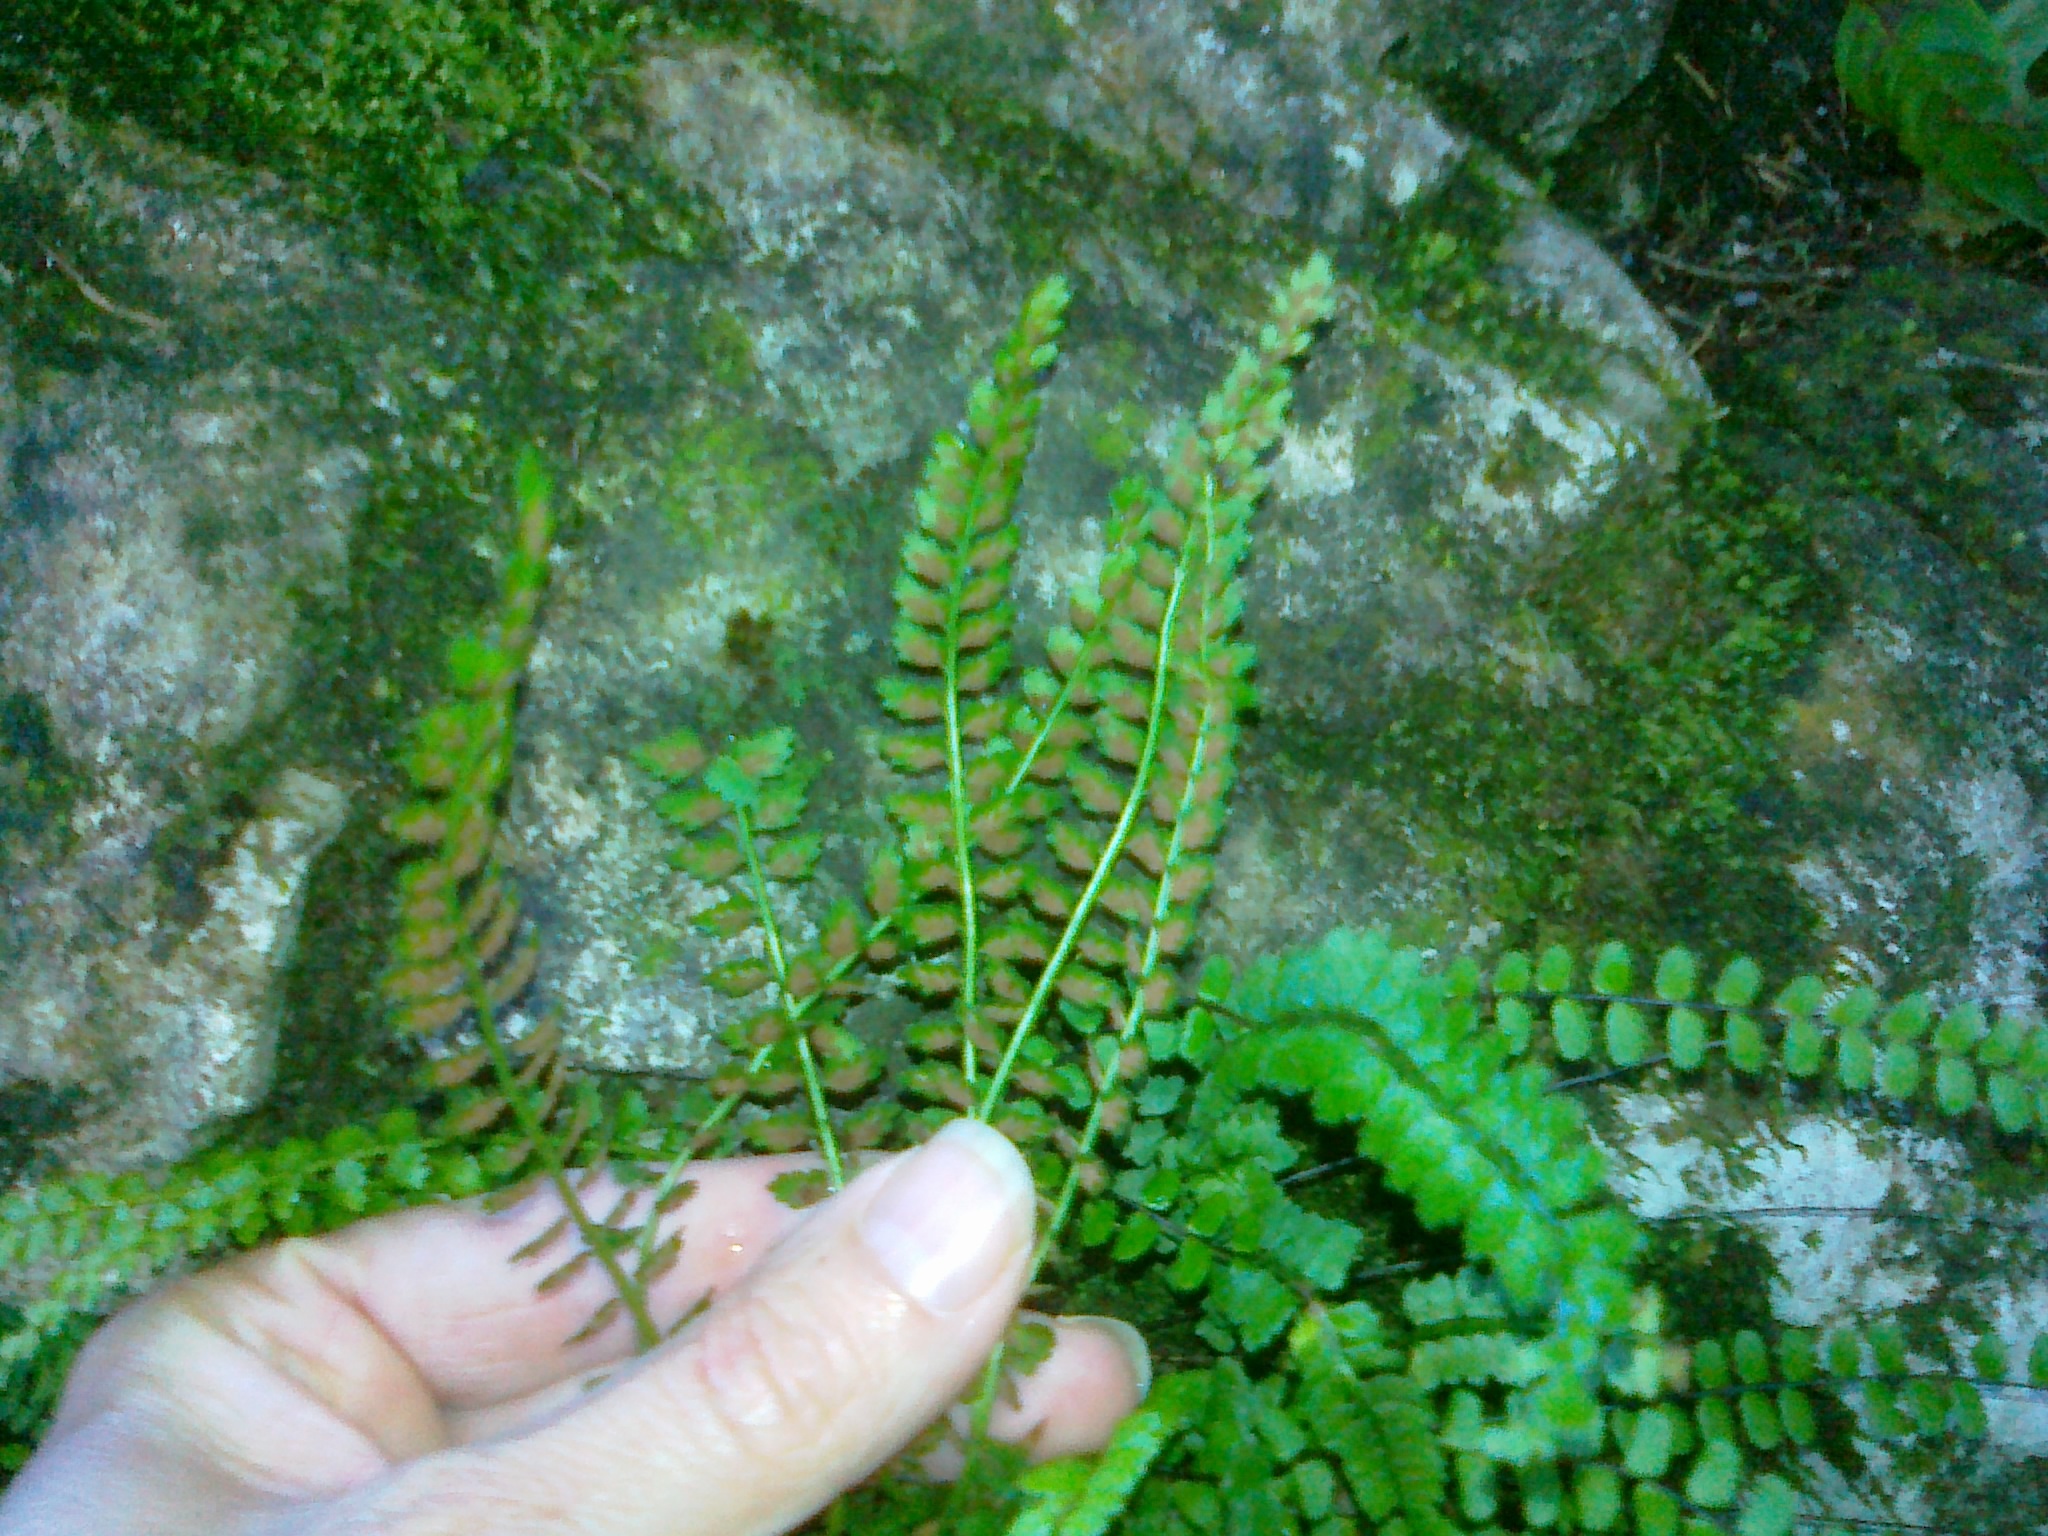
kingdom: Plantae
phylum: Tracheophyta
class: Polypodiopsida
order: Polypodiales
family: Aspleniaceae
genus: Asplenium
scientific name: Asplenium viride
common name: Green spleenwort
